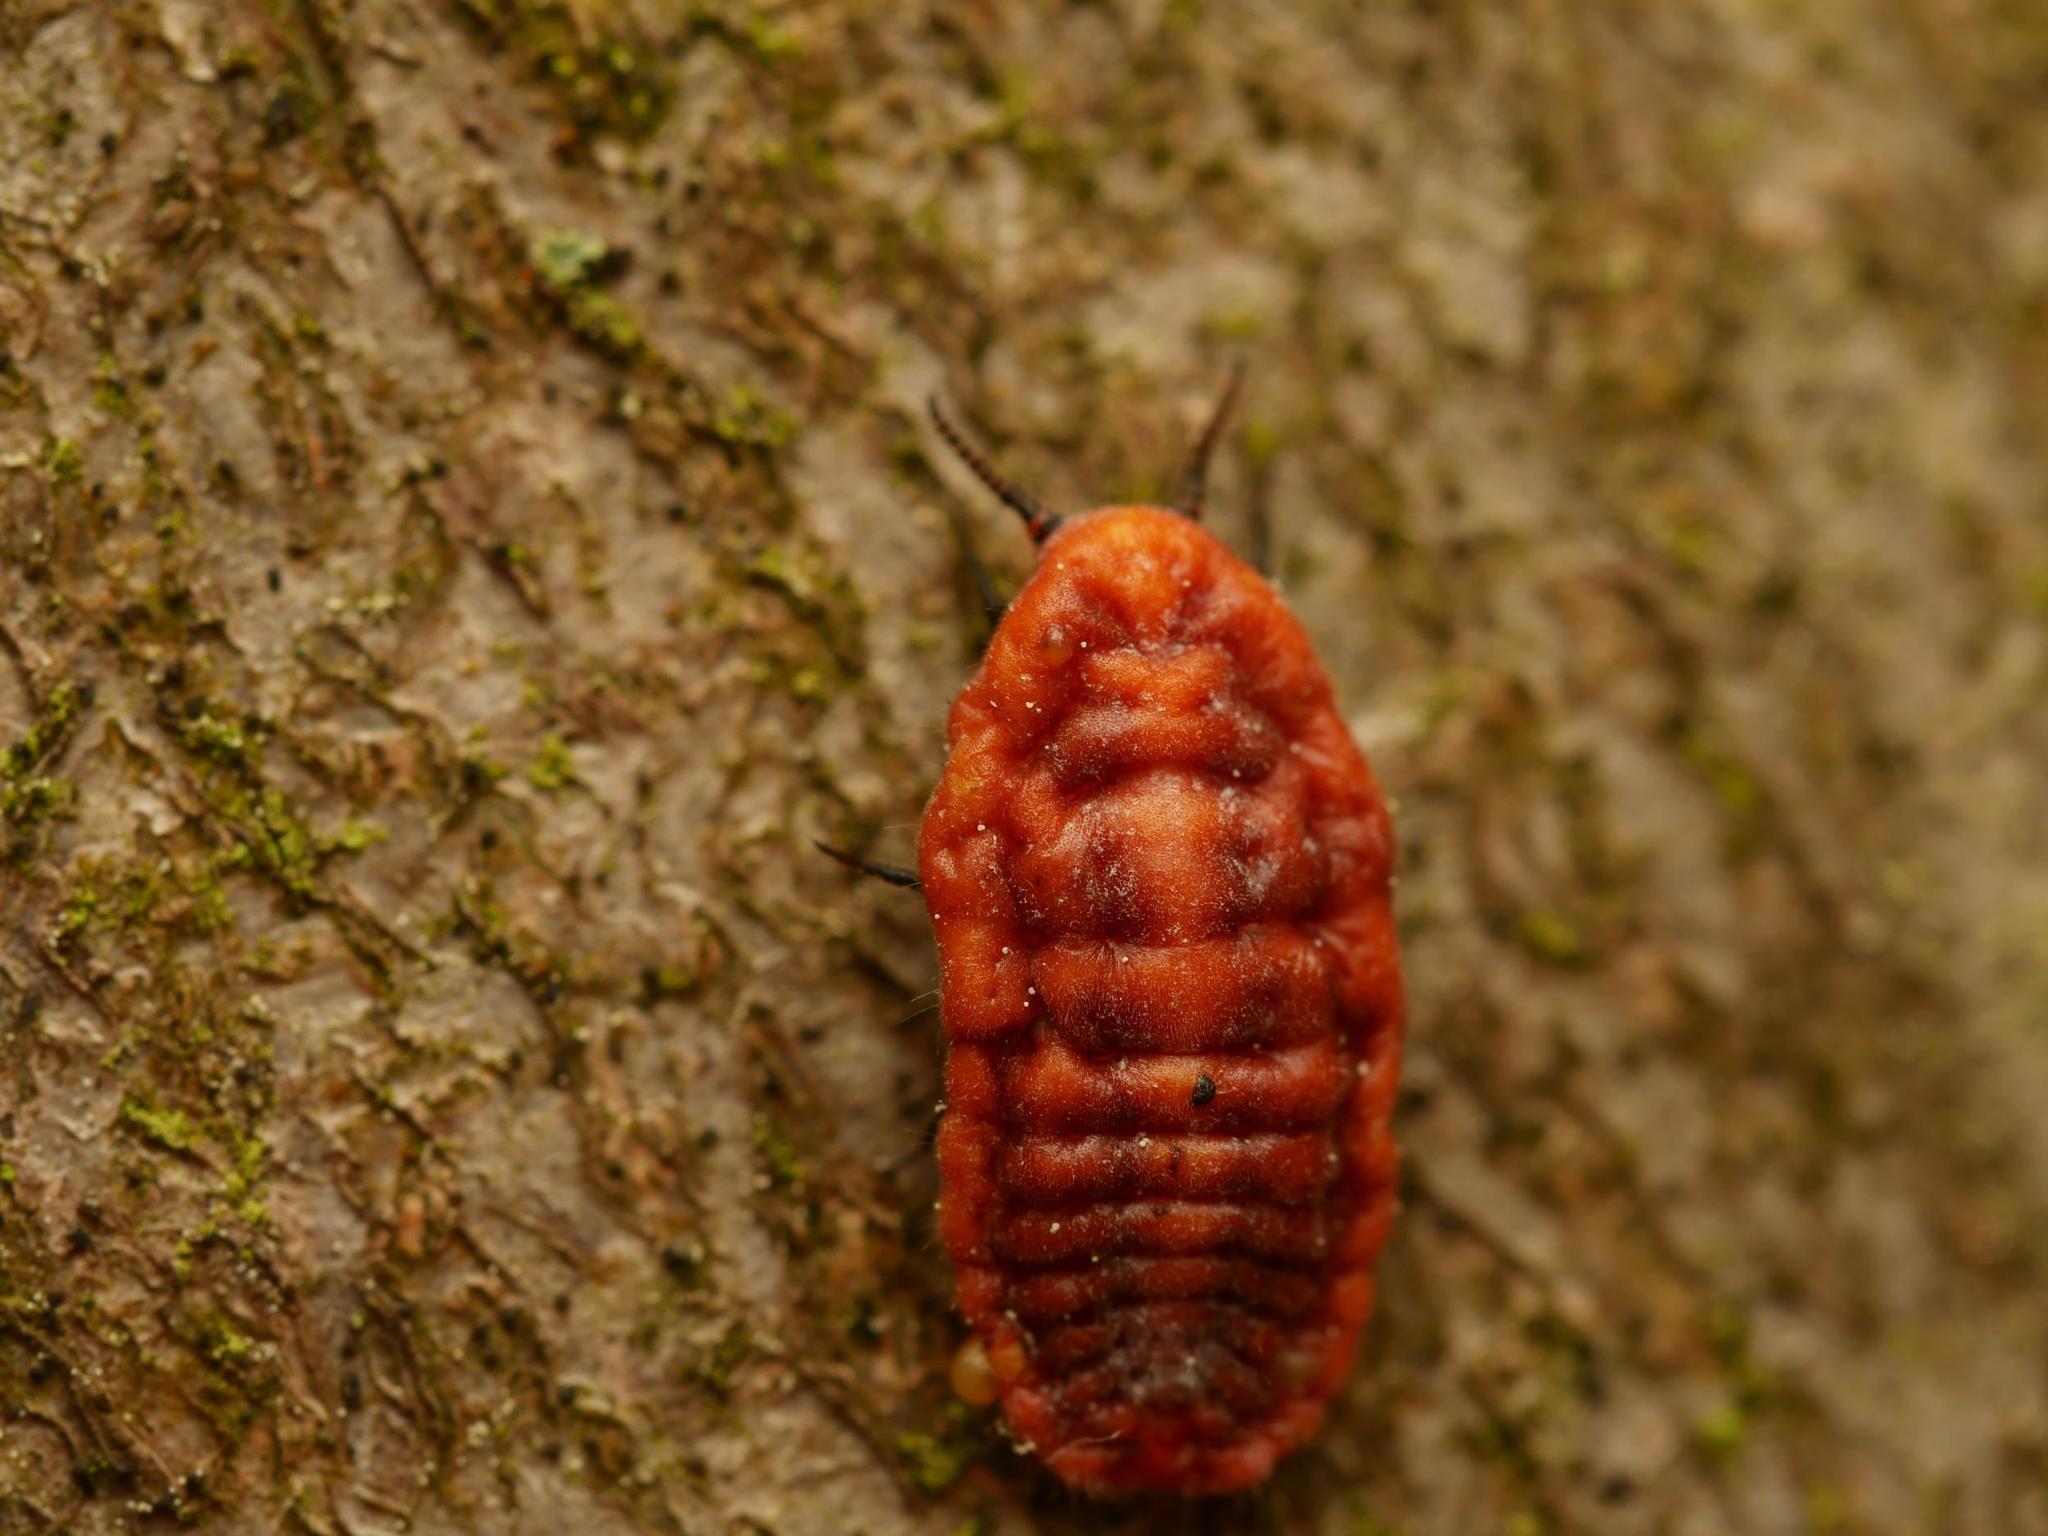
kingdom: Animalia
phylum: Arthropoda
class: Insecta
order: Hemiptera
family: Margarodidae
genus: Palaeococcus
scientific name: Palaeococcus fuscipennis
